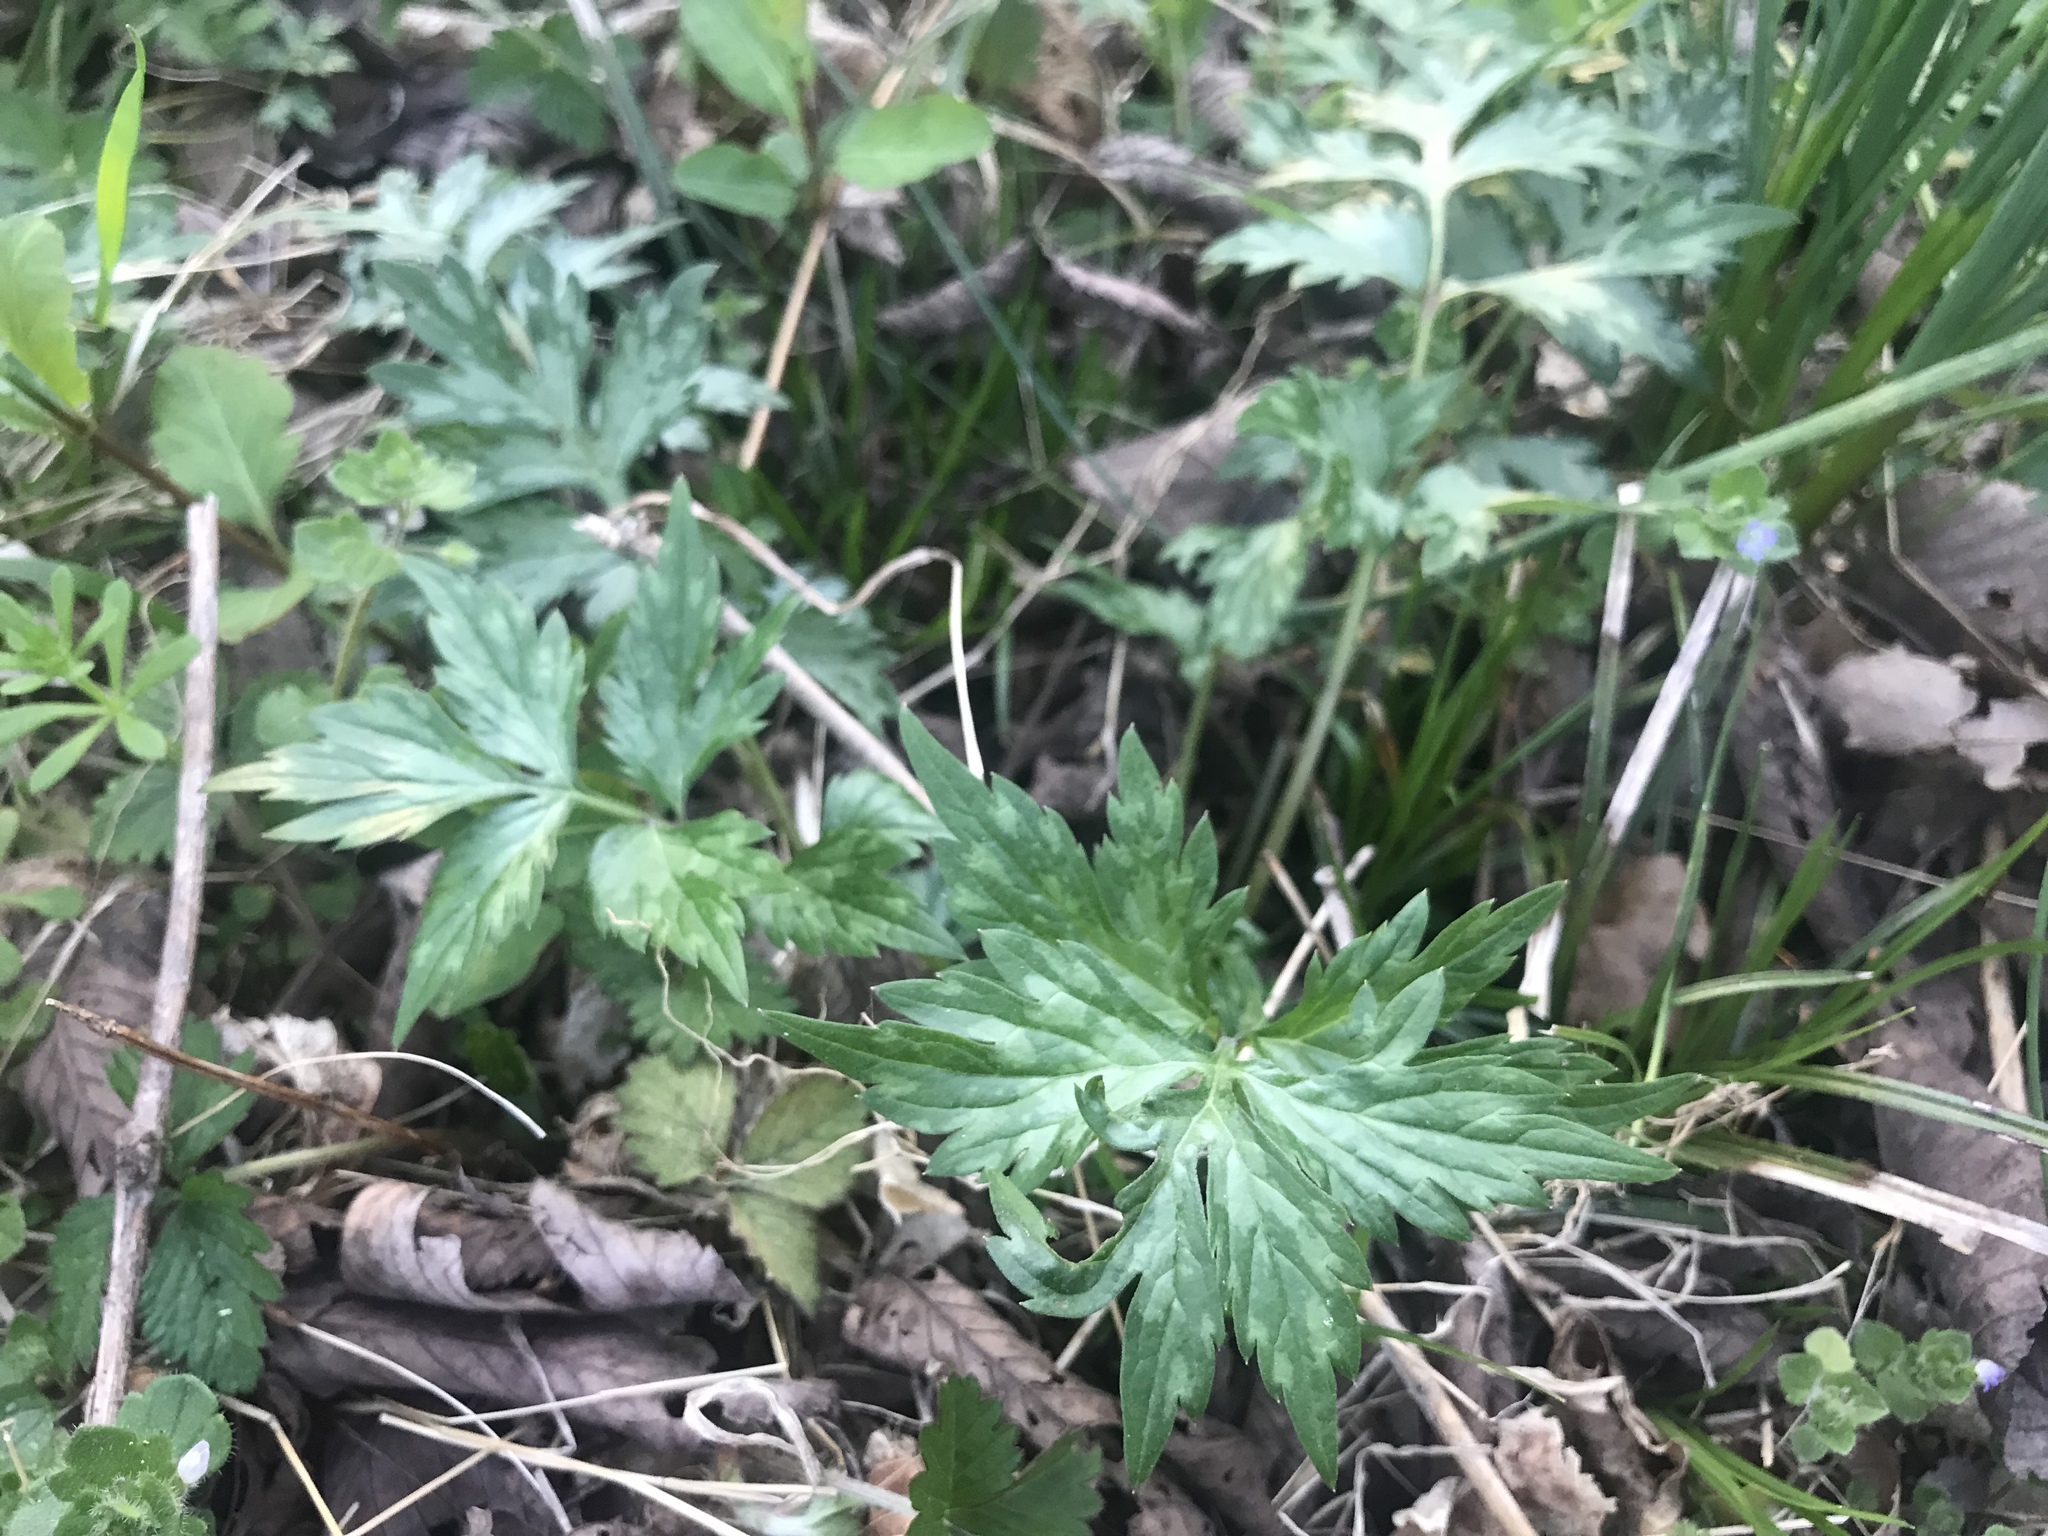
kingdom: Plantae
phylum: Tracheophyta
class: Magnoliopsida
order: Boraginales
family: Hydrophyllaceae
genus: Hydrophyllum
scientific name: Hydrophyllum virginianum
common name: Virginia waterleaf
